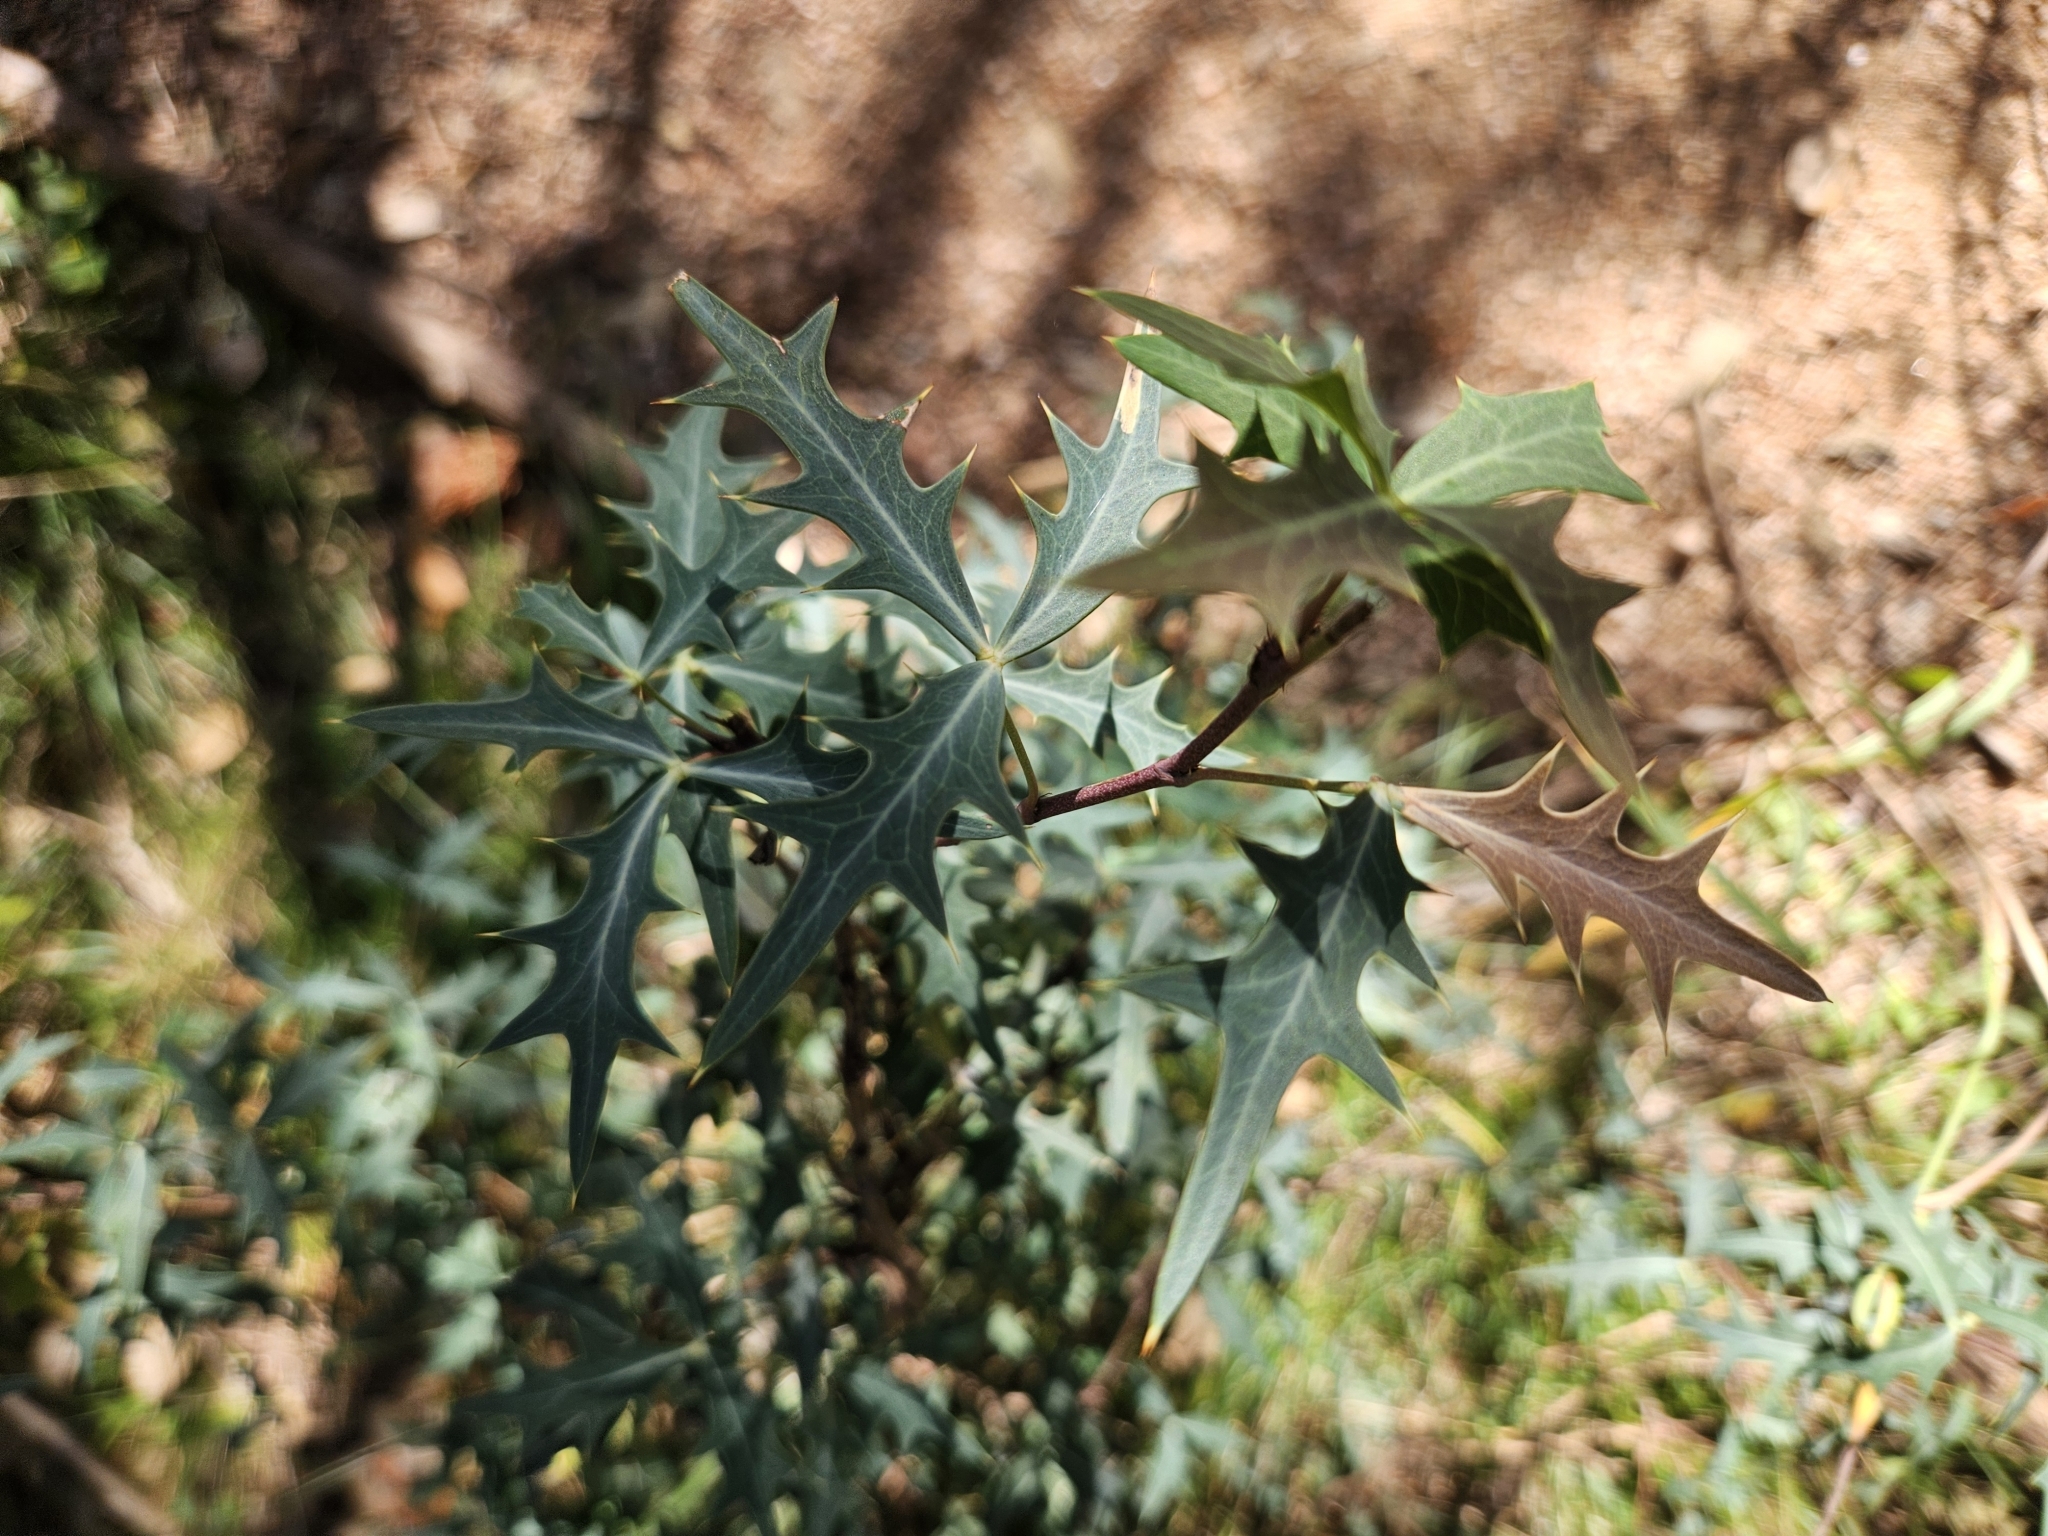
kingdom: Plantae
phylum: Tracheophyta
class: Magnoliopsida
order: Ranunculales
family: Berberidaceae
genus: Alloberberis
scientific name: Alloberberis trifoliolata
